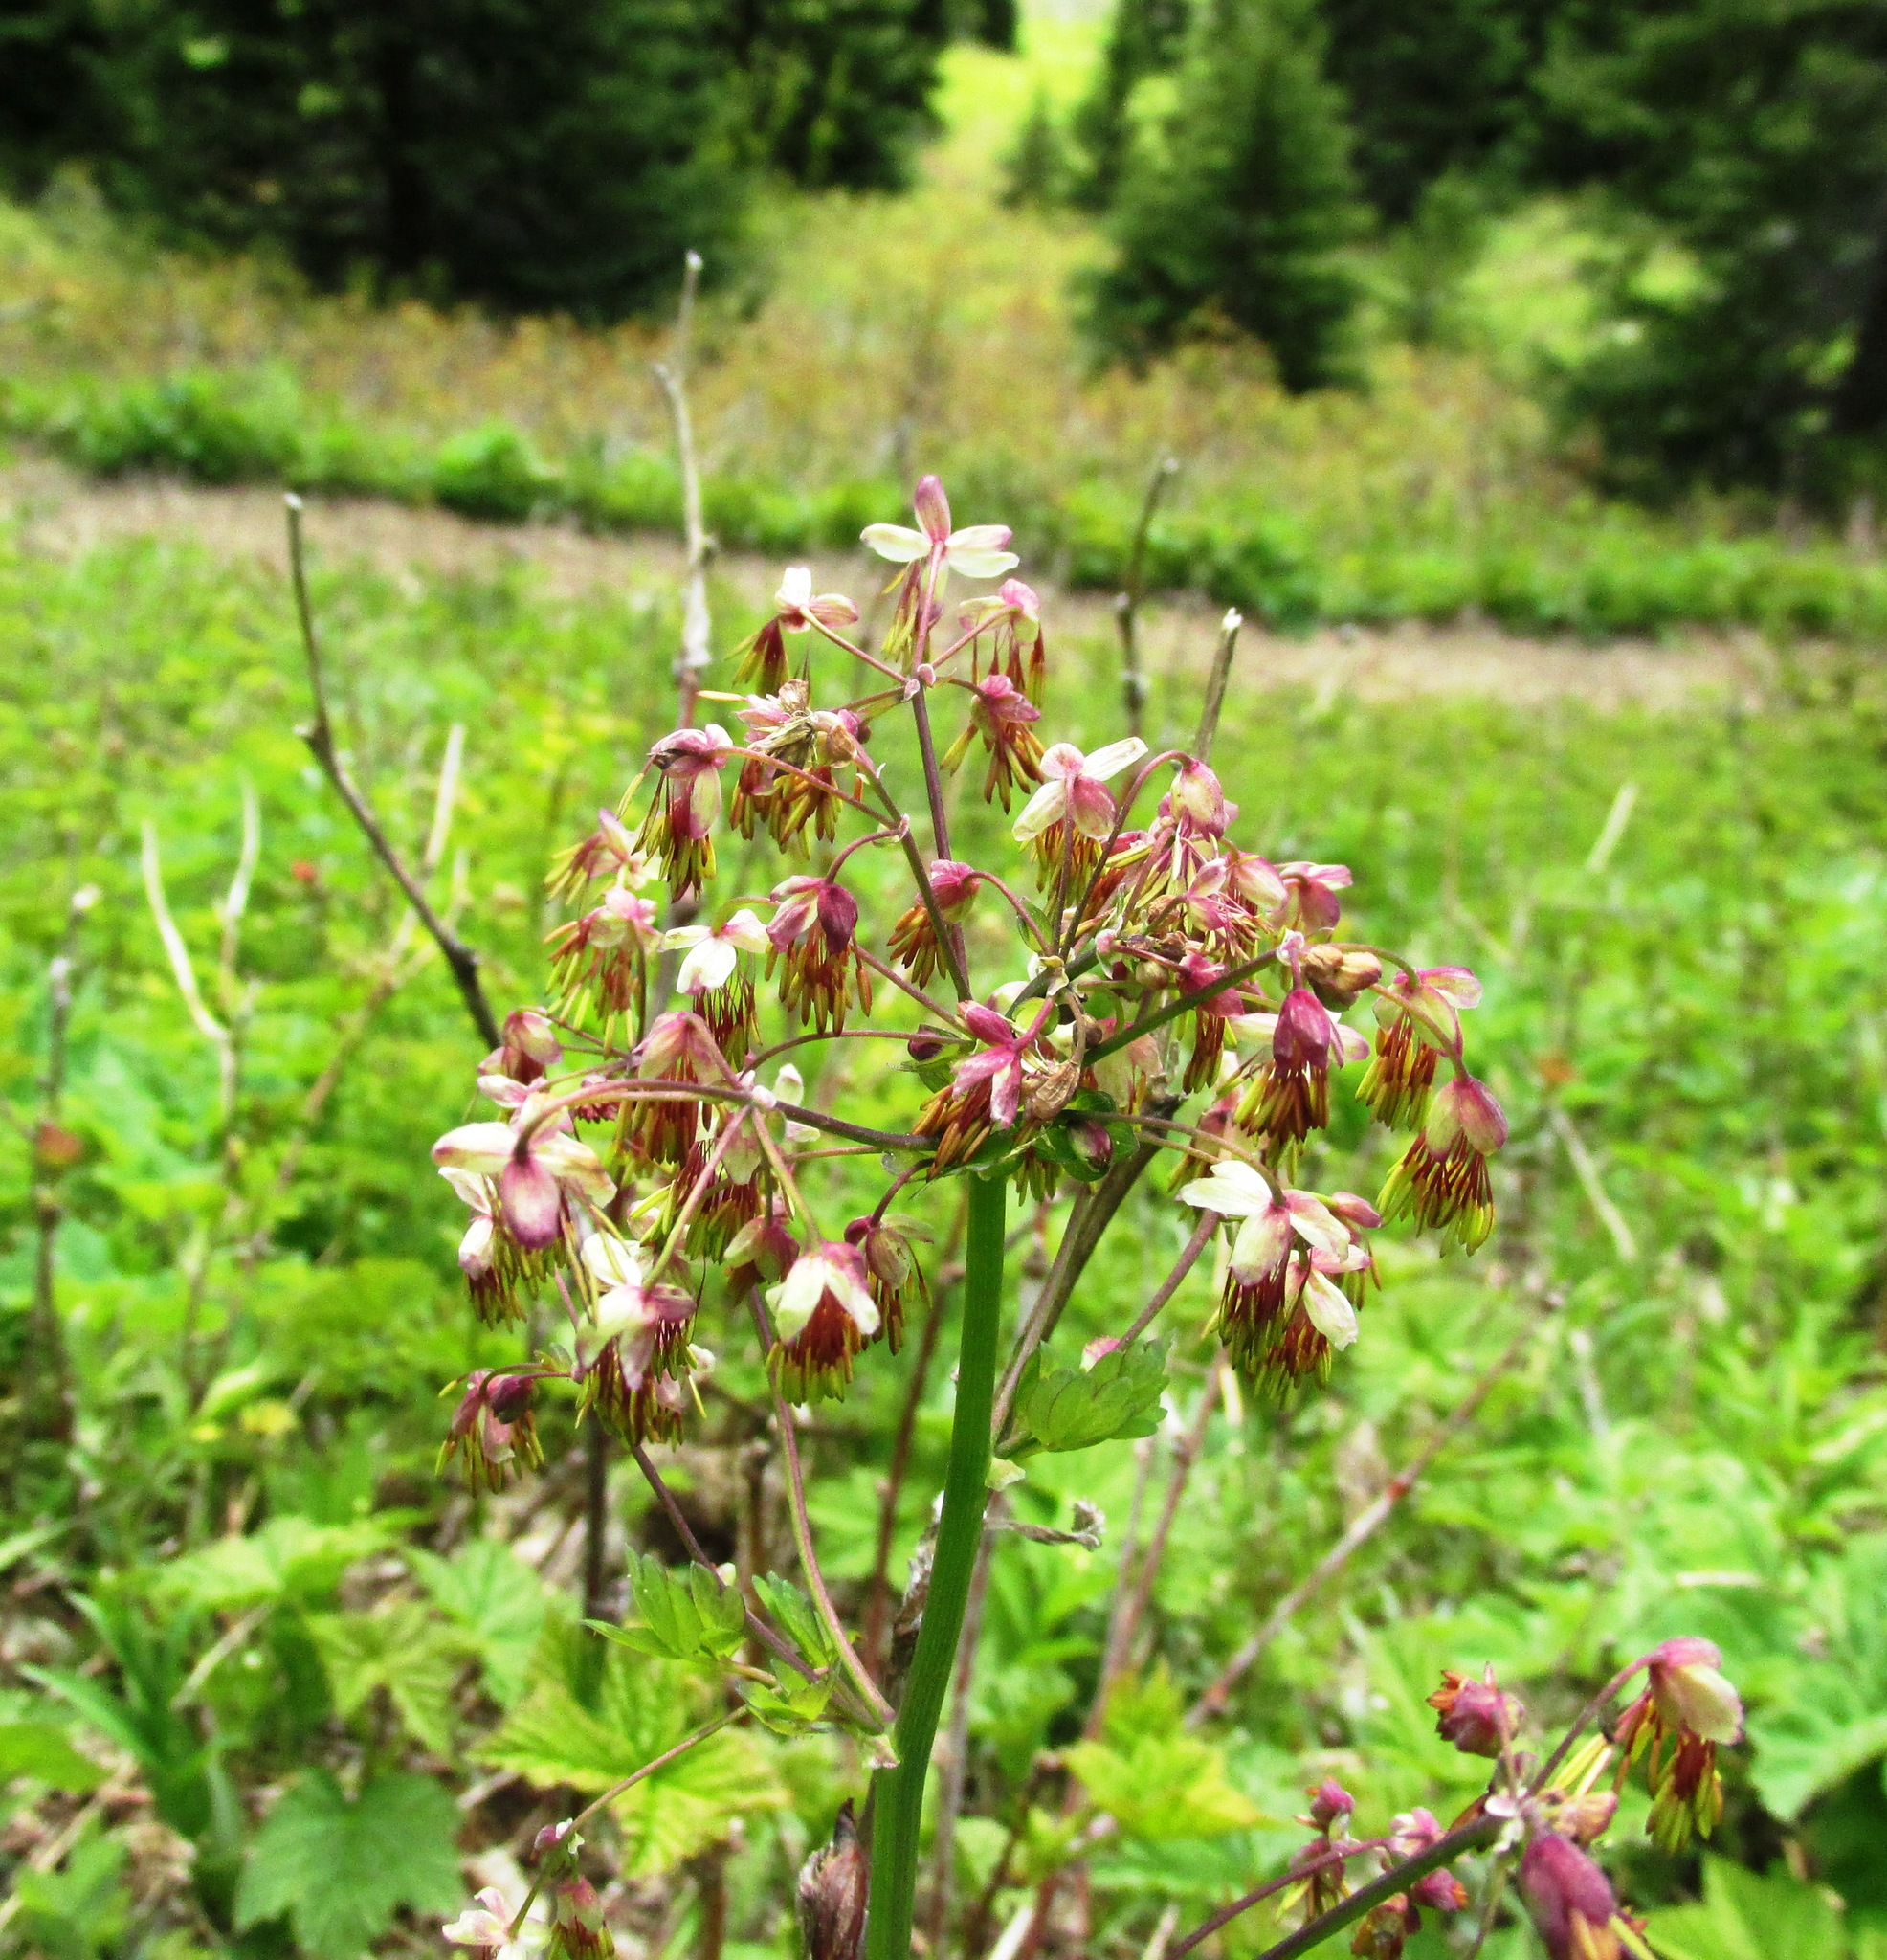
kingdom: Plantae
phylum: Tracheophyta
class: Magnoliopsida
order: Ranunculales
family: Ranunculaceae
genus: Thalictrum
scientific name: Thalictrum occidentale
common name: Western meadow-rue
